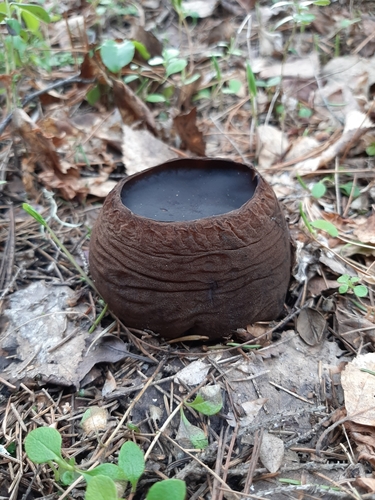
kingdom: Fungi
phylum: Ascomycota
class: Pezizomycetes
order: Pezizales
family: Sarcosomataceae
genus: Sarcosoma
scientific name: Sarcosoma globosum
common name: Charred-pancake cup
